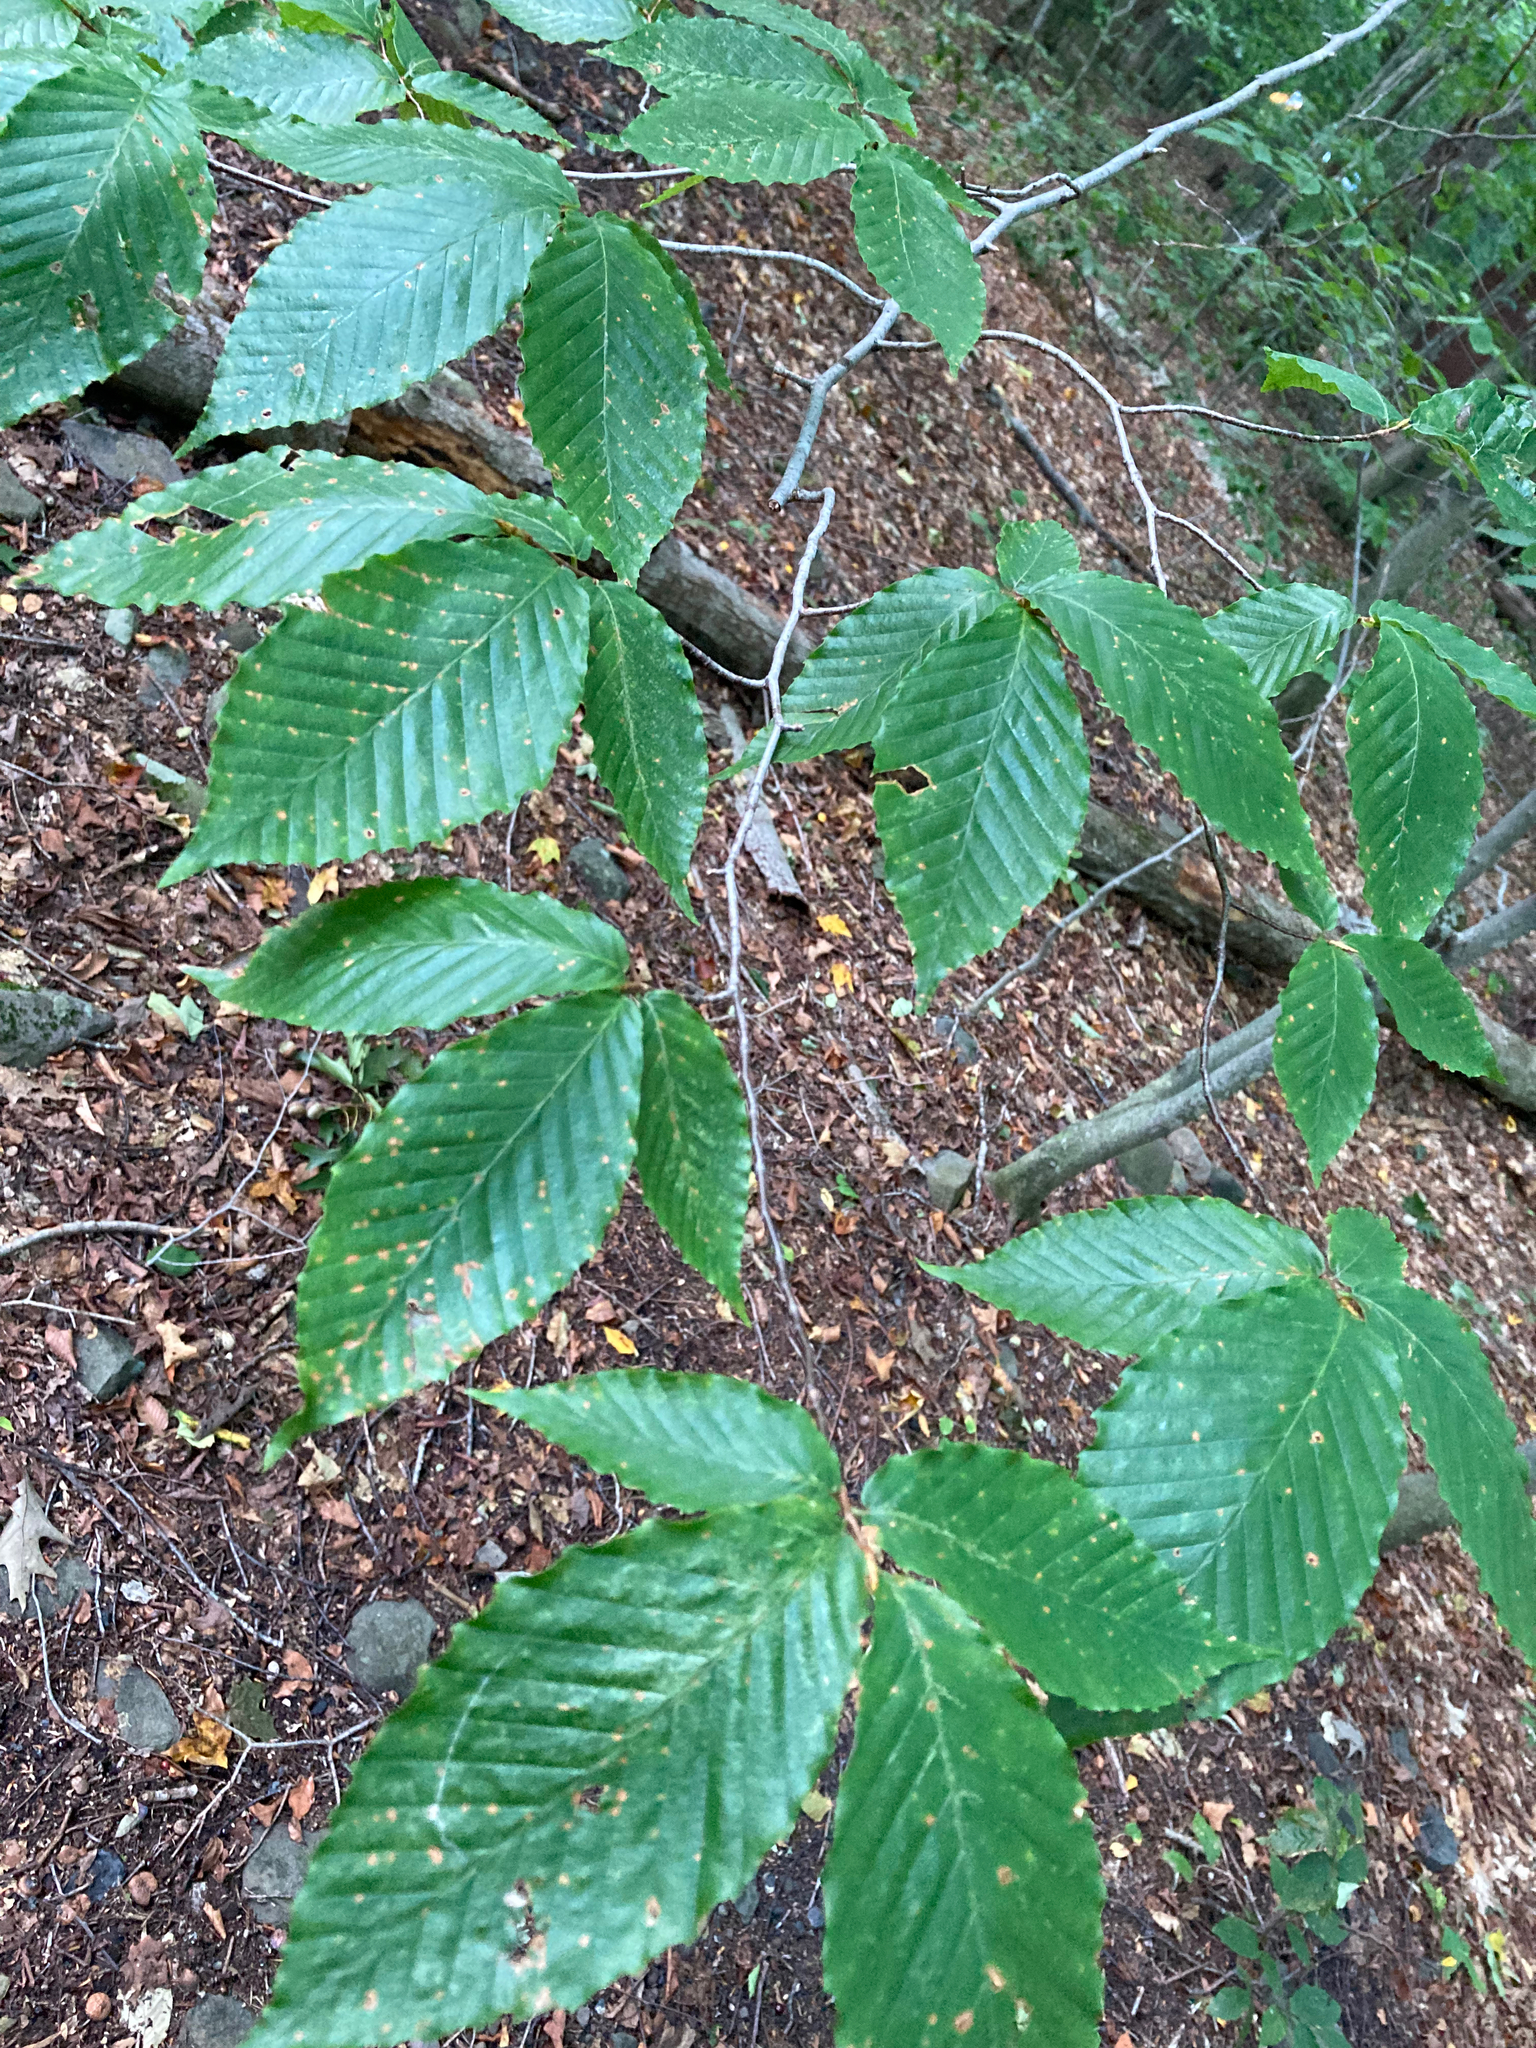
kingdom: Plantae
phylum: Tracheophyta
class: Magnoliopsida
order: Fagales
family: Fagaceae
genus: Fagus
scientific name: Fagus grandifolia
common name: American beech
